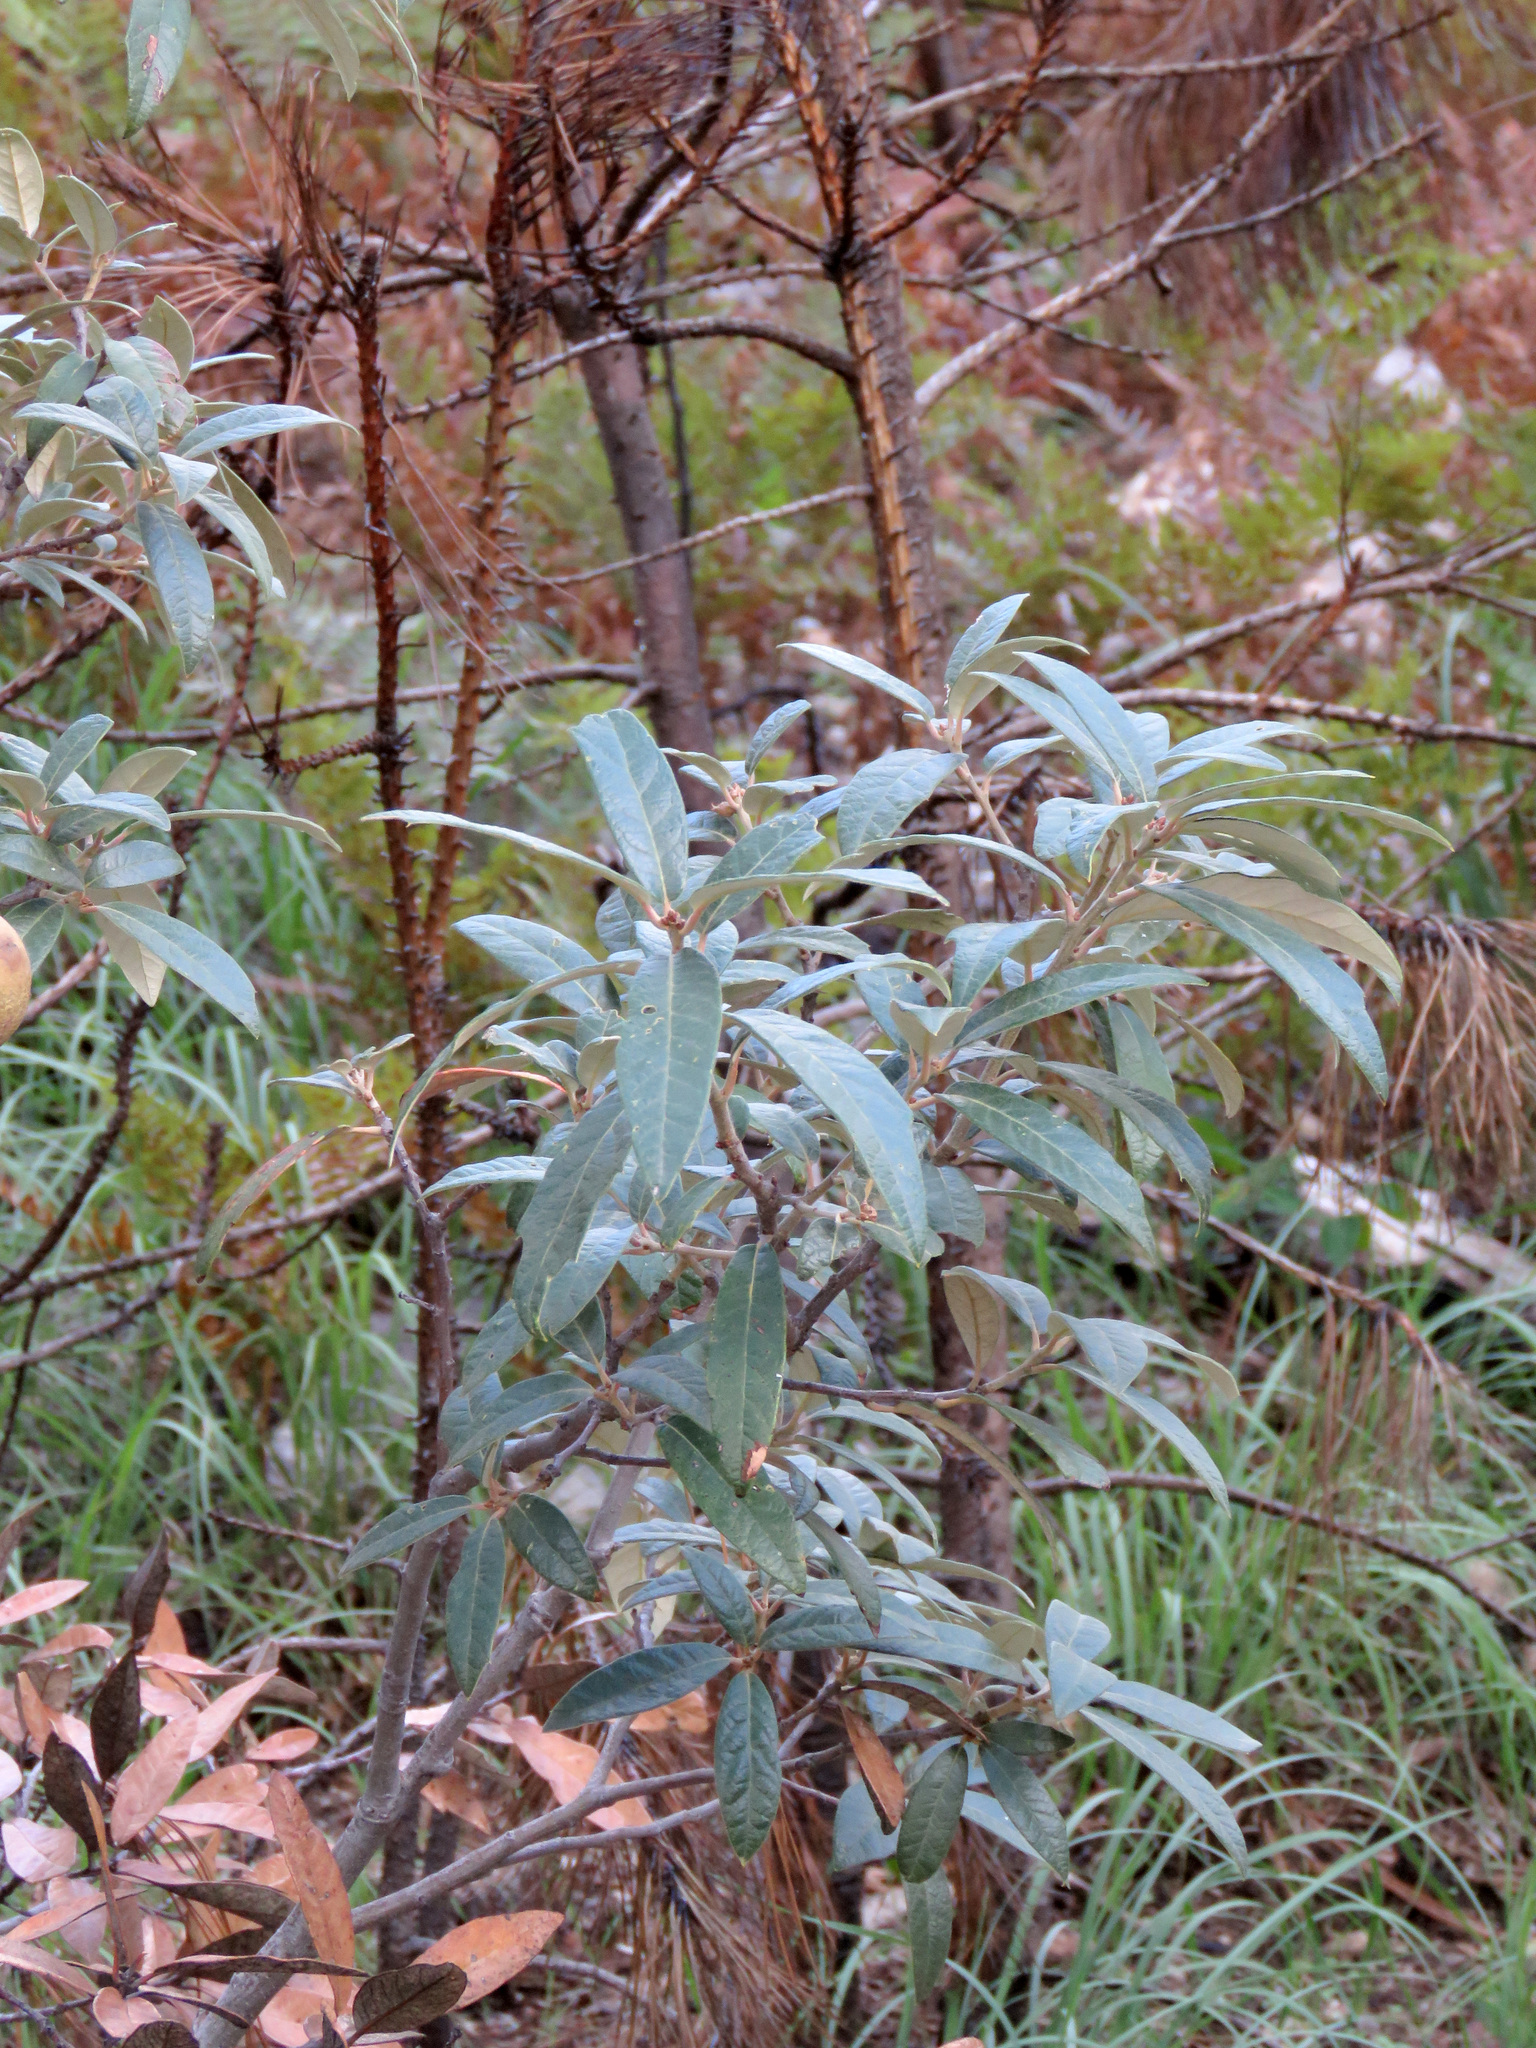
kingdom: Plantae
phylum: Tracheophyta
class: Magnoliopsida
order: Fagales
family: Fagaceae
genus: Quercus
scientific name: Quercus hypoleucoides
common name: Silverleaf oak
